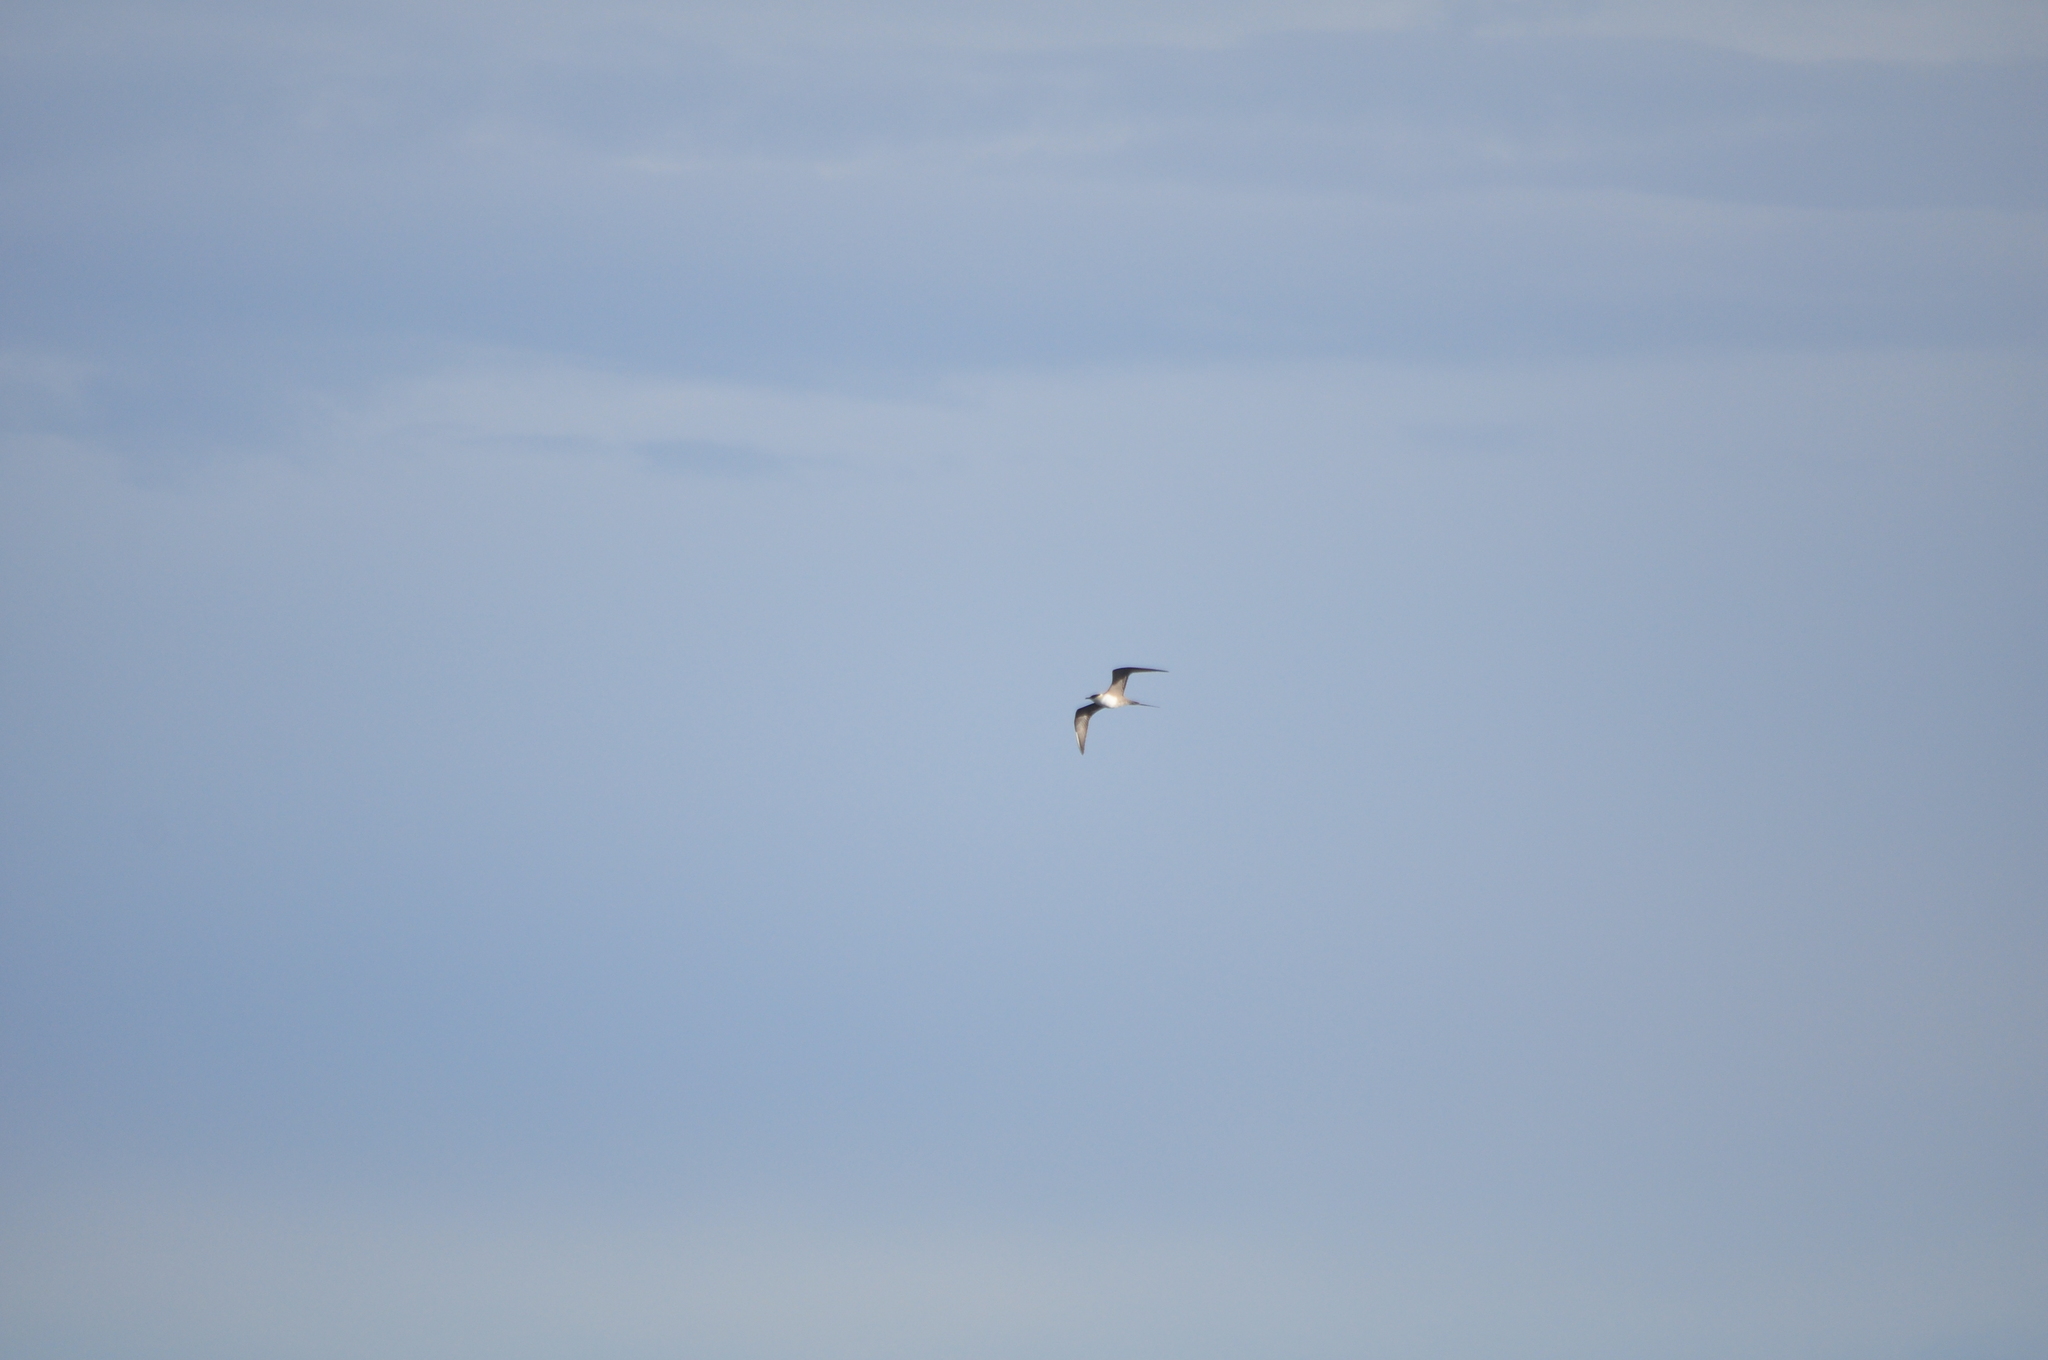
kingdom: Animalia
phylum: Chordata
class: Aves
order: Charadriiformes
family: Stercorariidae
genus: Stercorarius
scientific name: Stercorarius longicaudus
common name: Long-tailed jaeger
